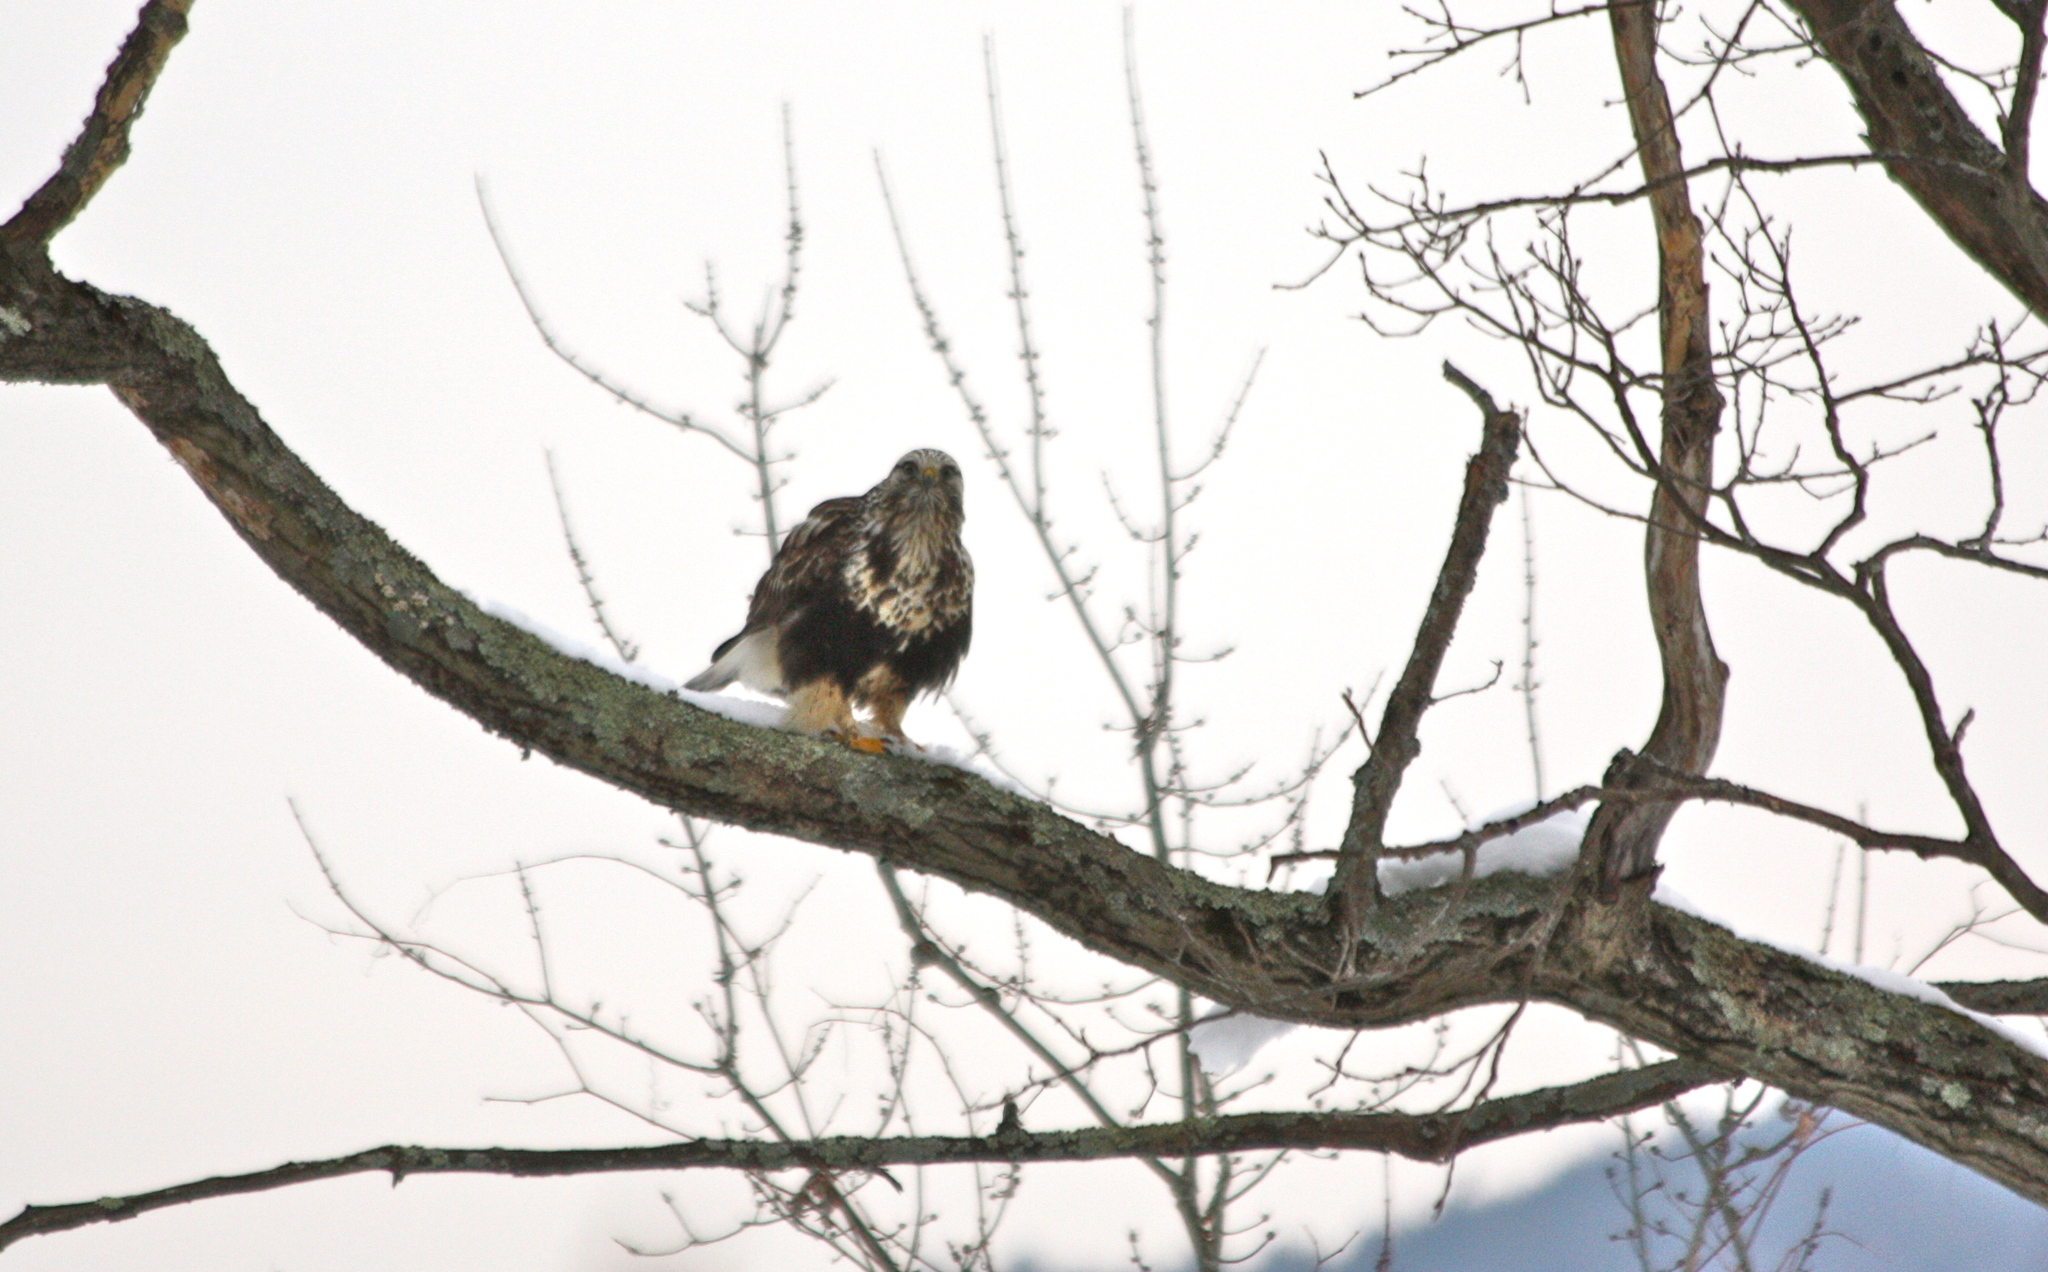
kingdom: Animalia
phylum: Chordata
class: Aves
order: Accipitriformes
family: Accipitridae
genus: Buteo
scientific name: Buteo lagopus
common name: Rough-legged buzzard
